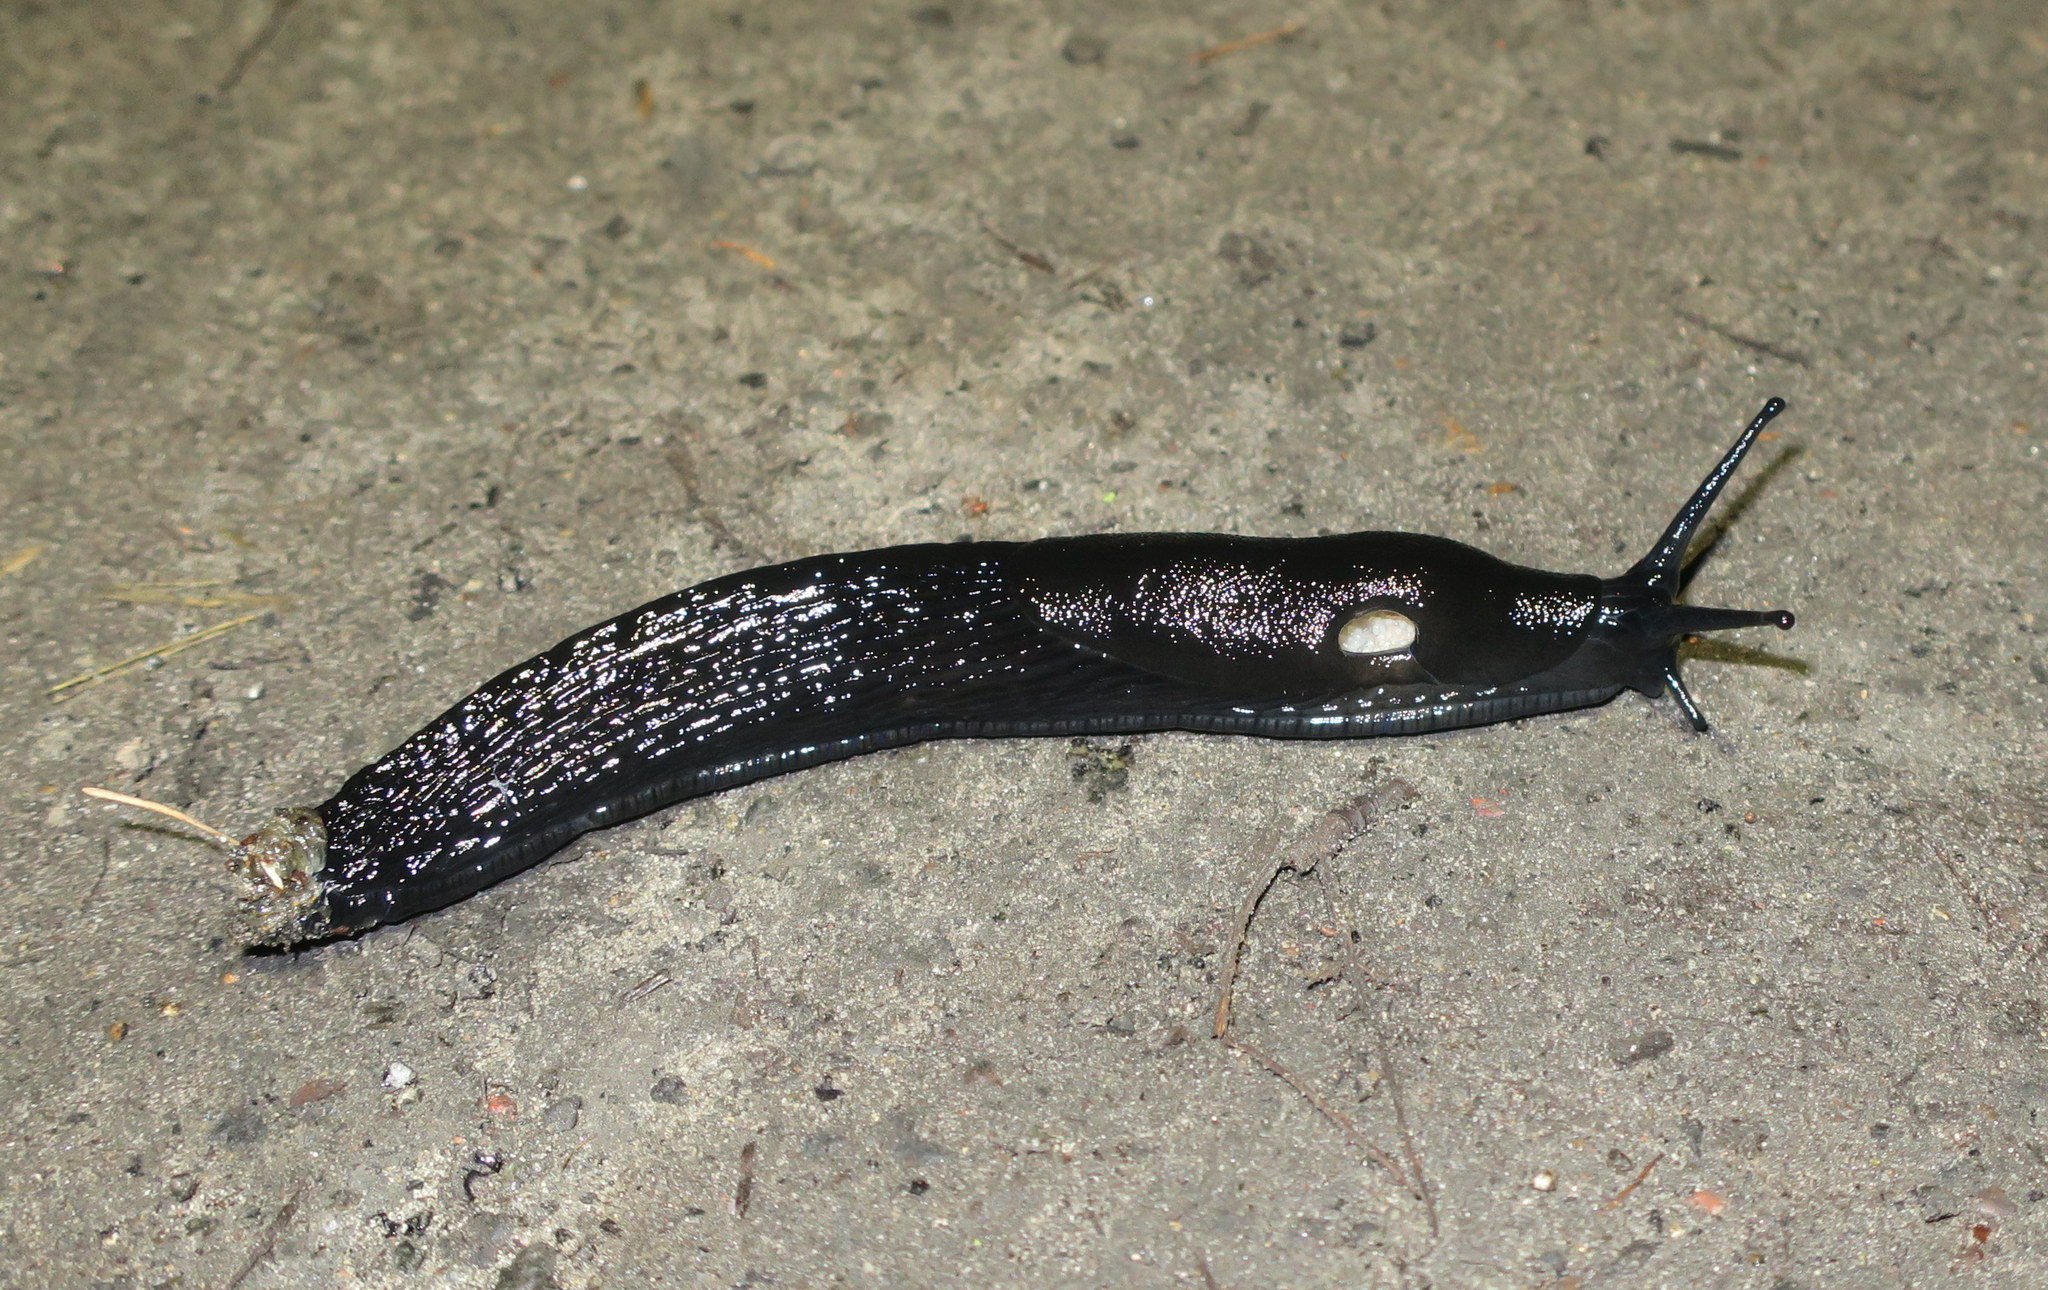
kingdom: Animalia
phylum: Mollusca
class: Gastropoda
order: Stylommatophora
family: Arionidae
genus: Arion
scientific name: Arion
